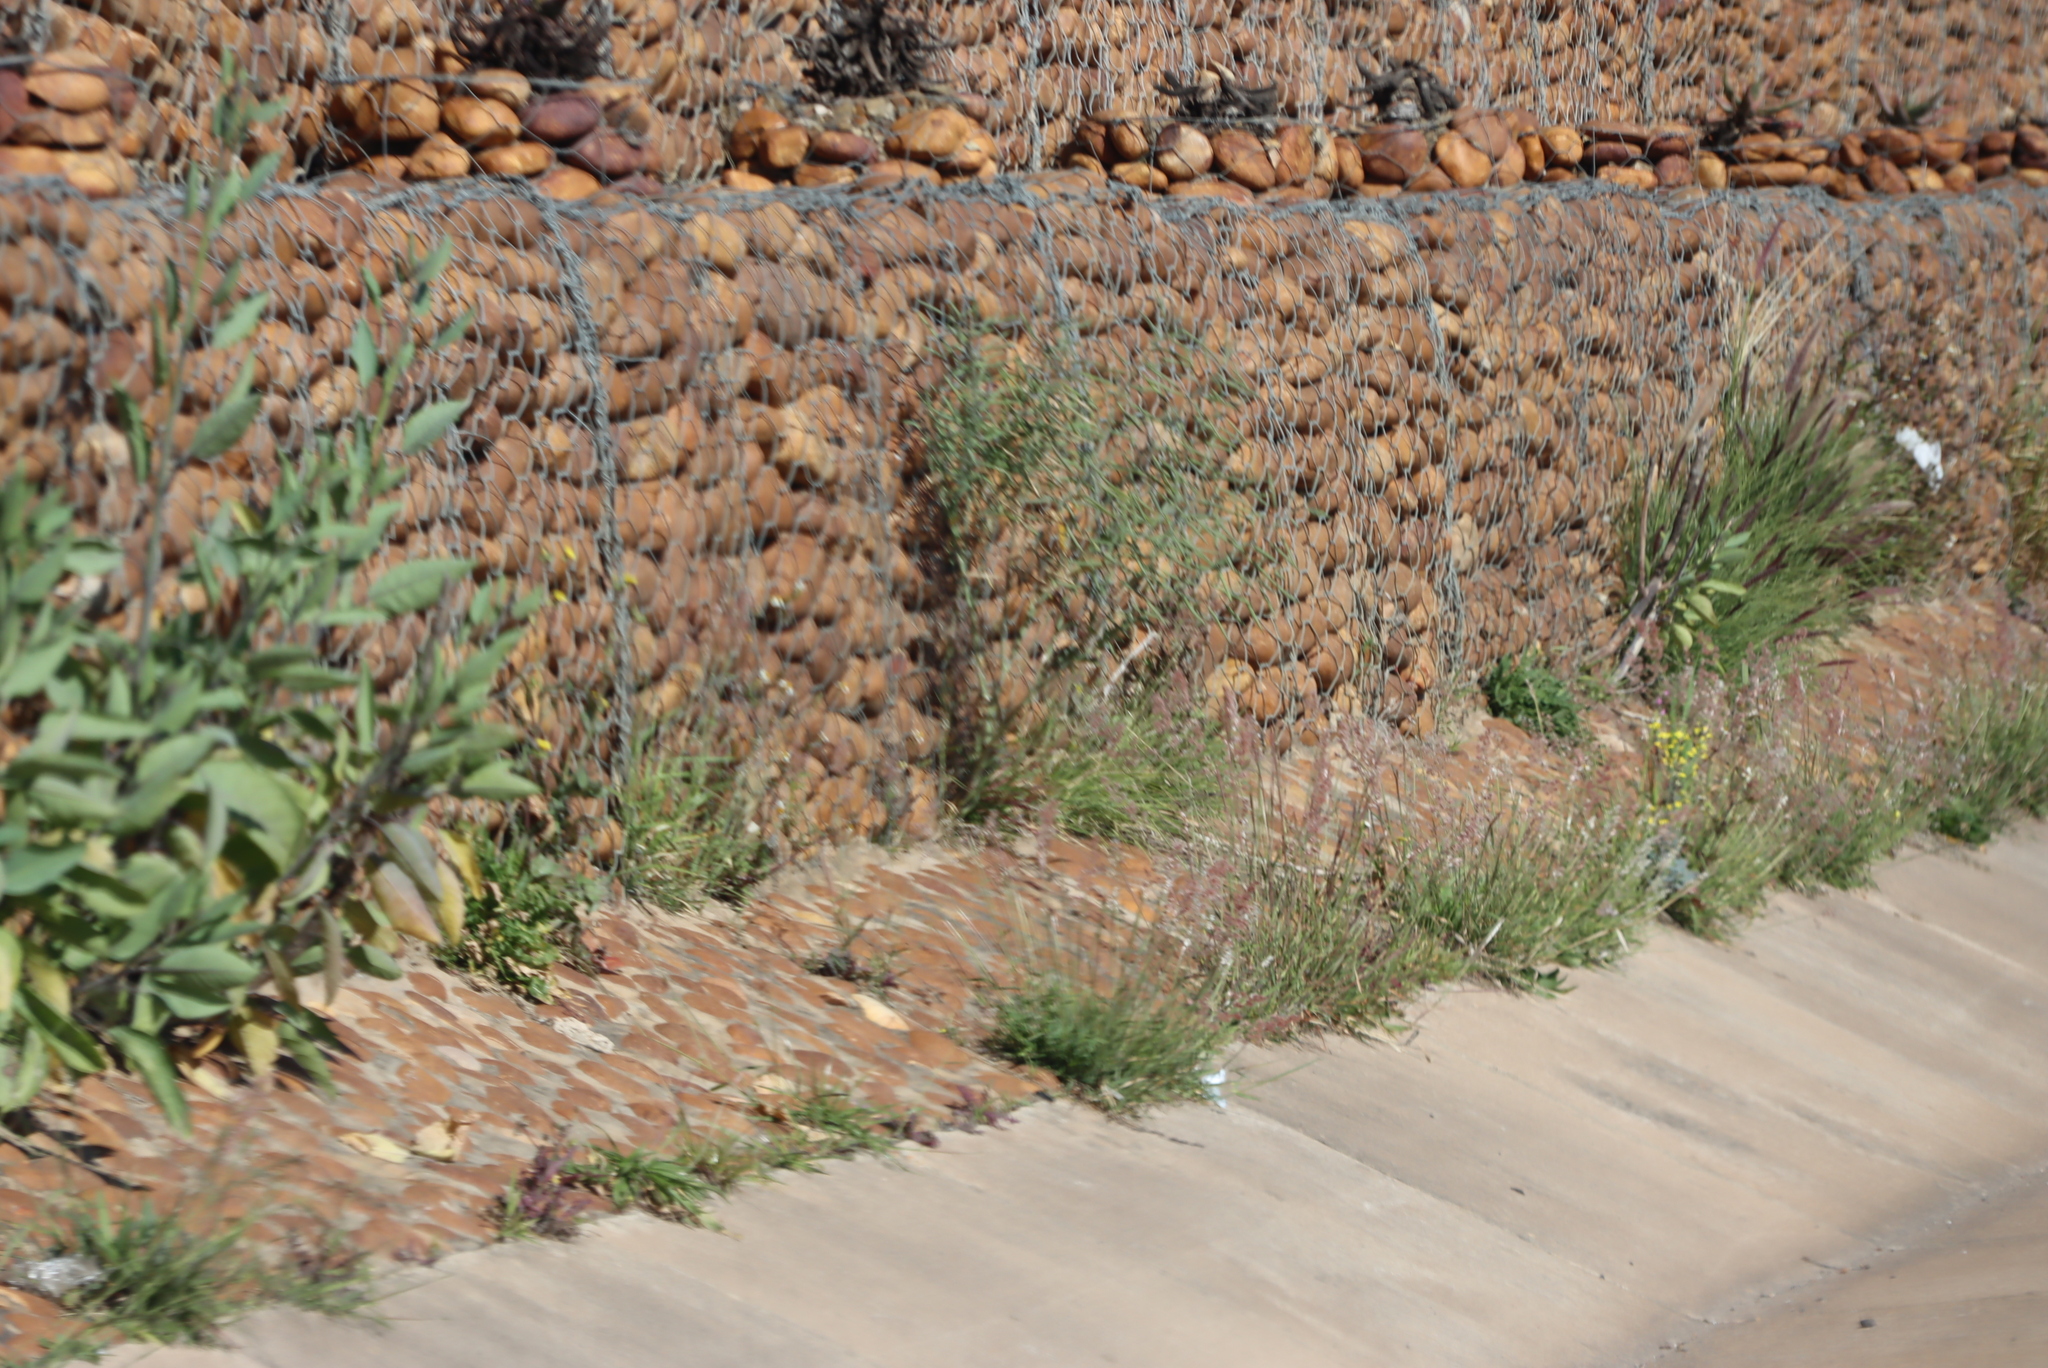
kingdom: Plantae
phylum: Tracheophyta
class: Liliopsida
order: Poales
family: Poaceae
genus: Cenchrus
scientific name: Cenchrus setaceus
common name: Crimson fountaingrass
